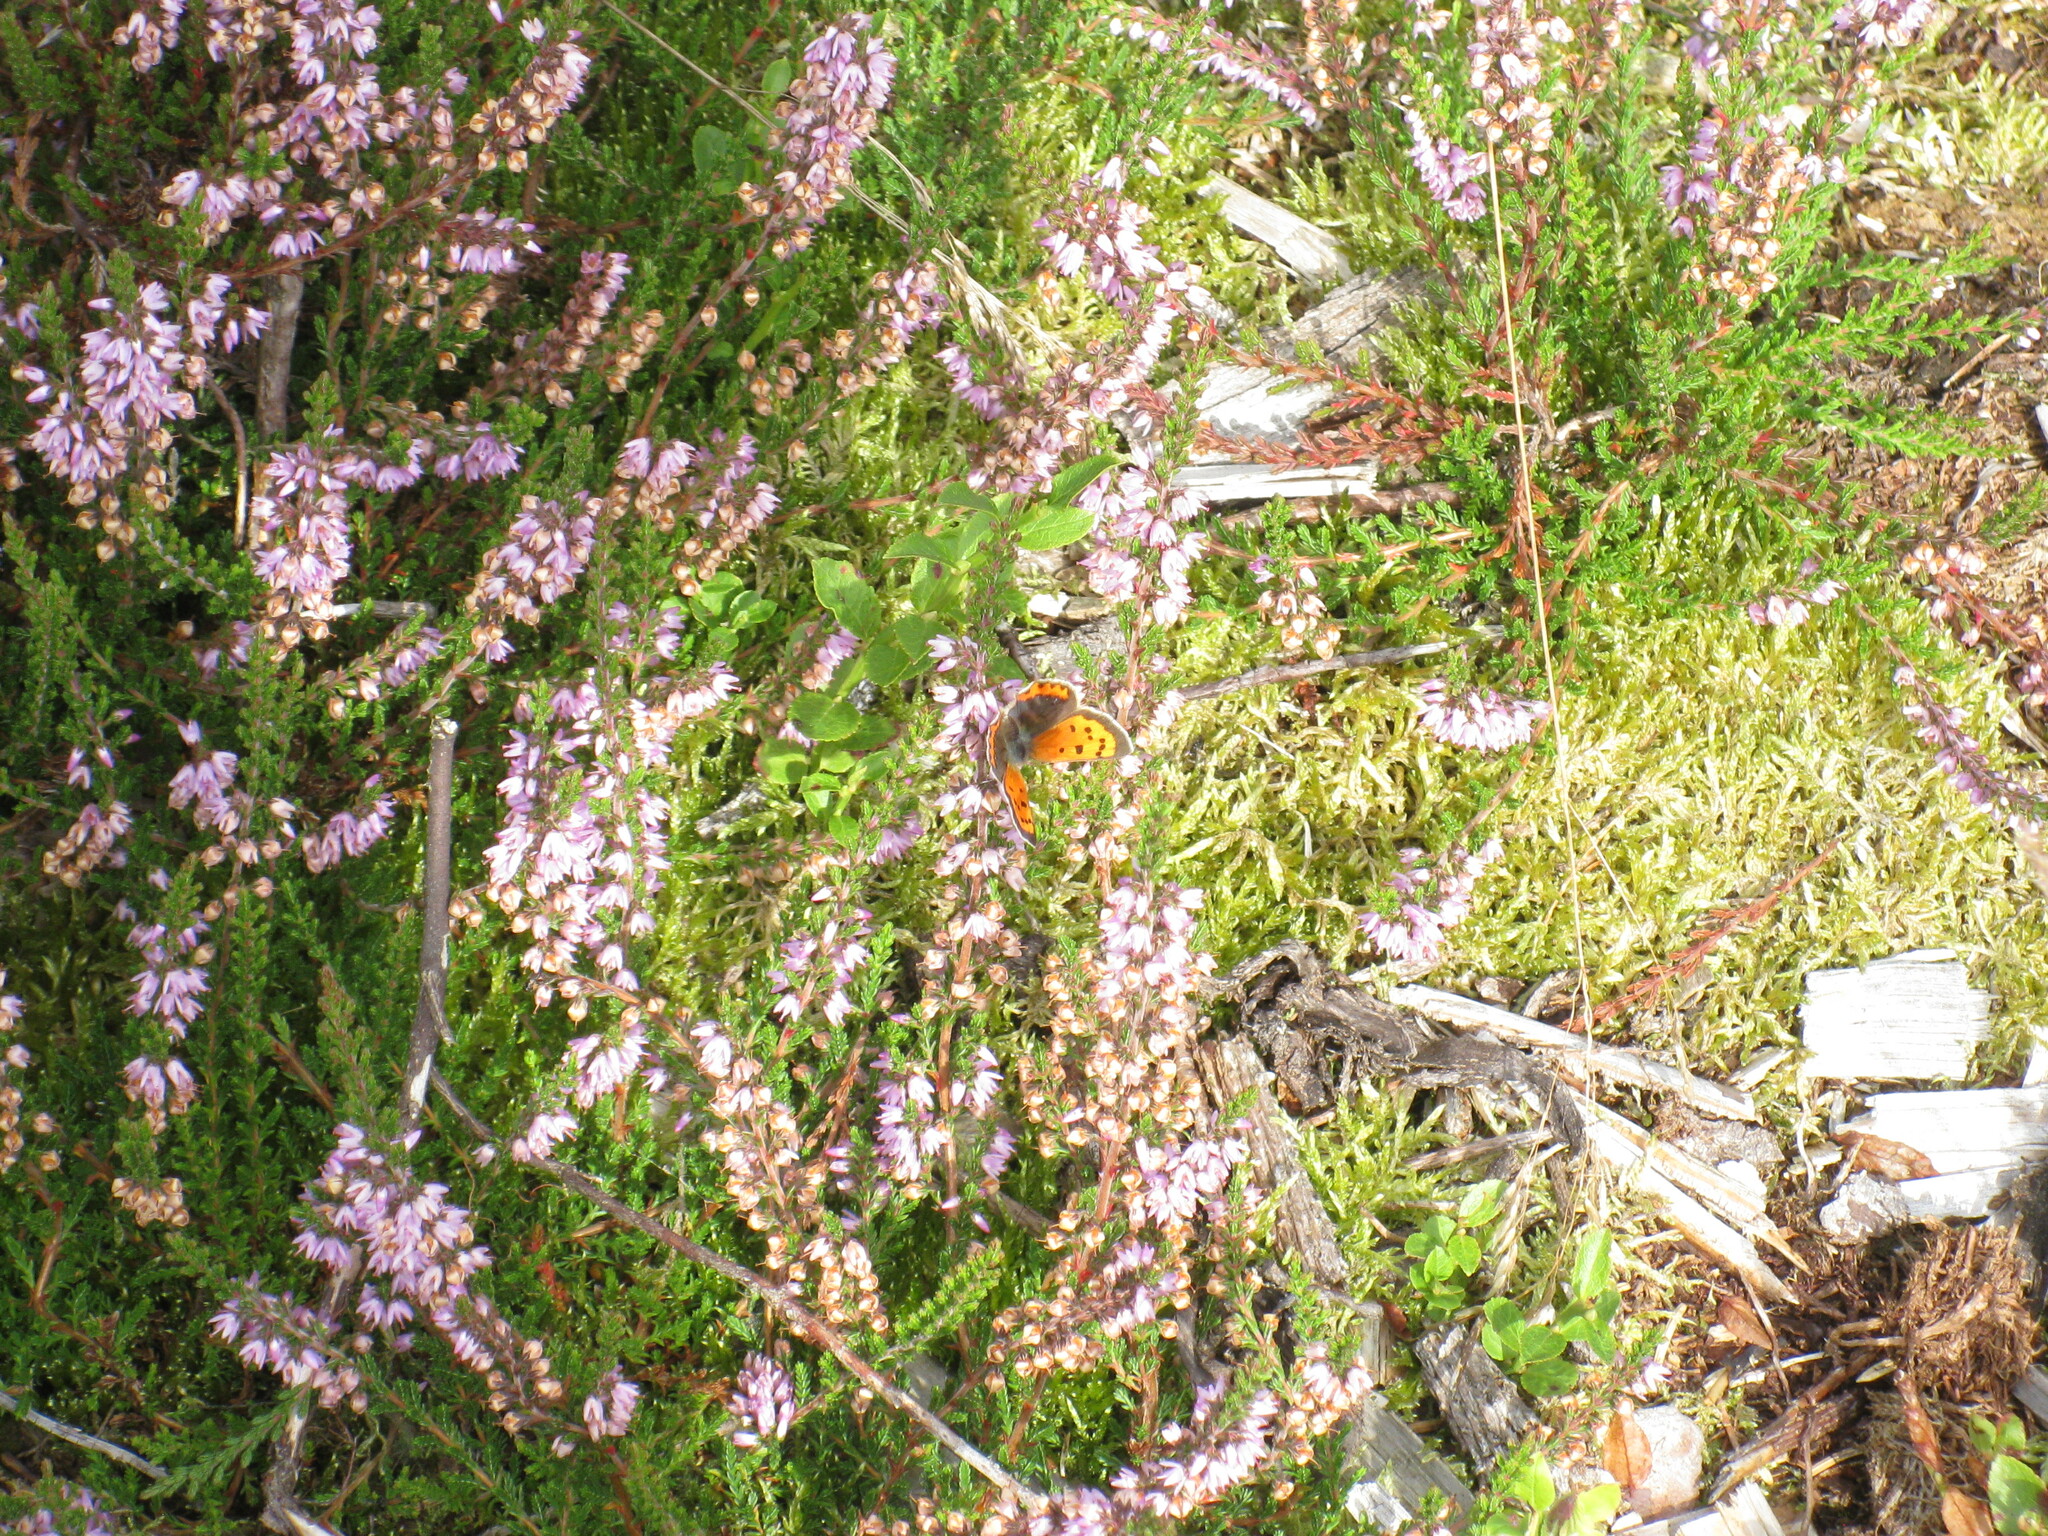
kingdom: Animalia
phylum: Arthropoda
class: Insecta
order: Lepidoptera
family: Lycaenidae
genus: Lycaena
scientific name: Lycaena phlaeas
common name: Small copper
